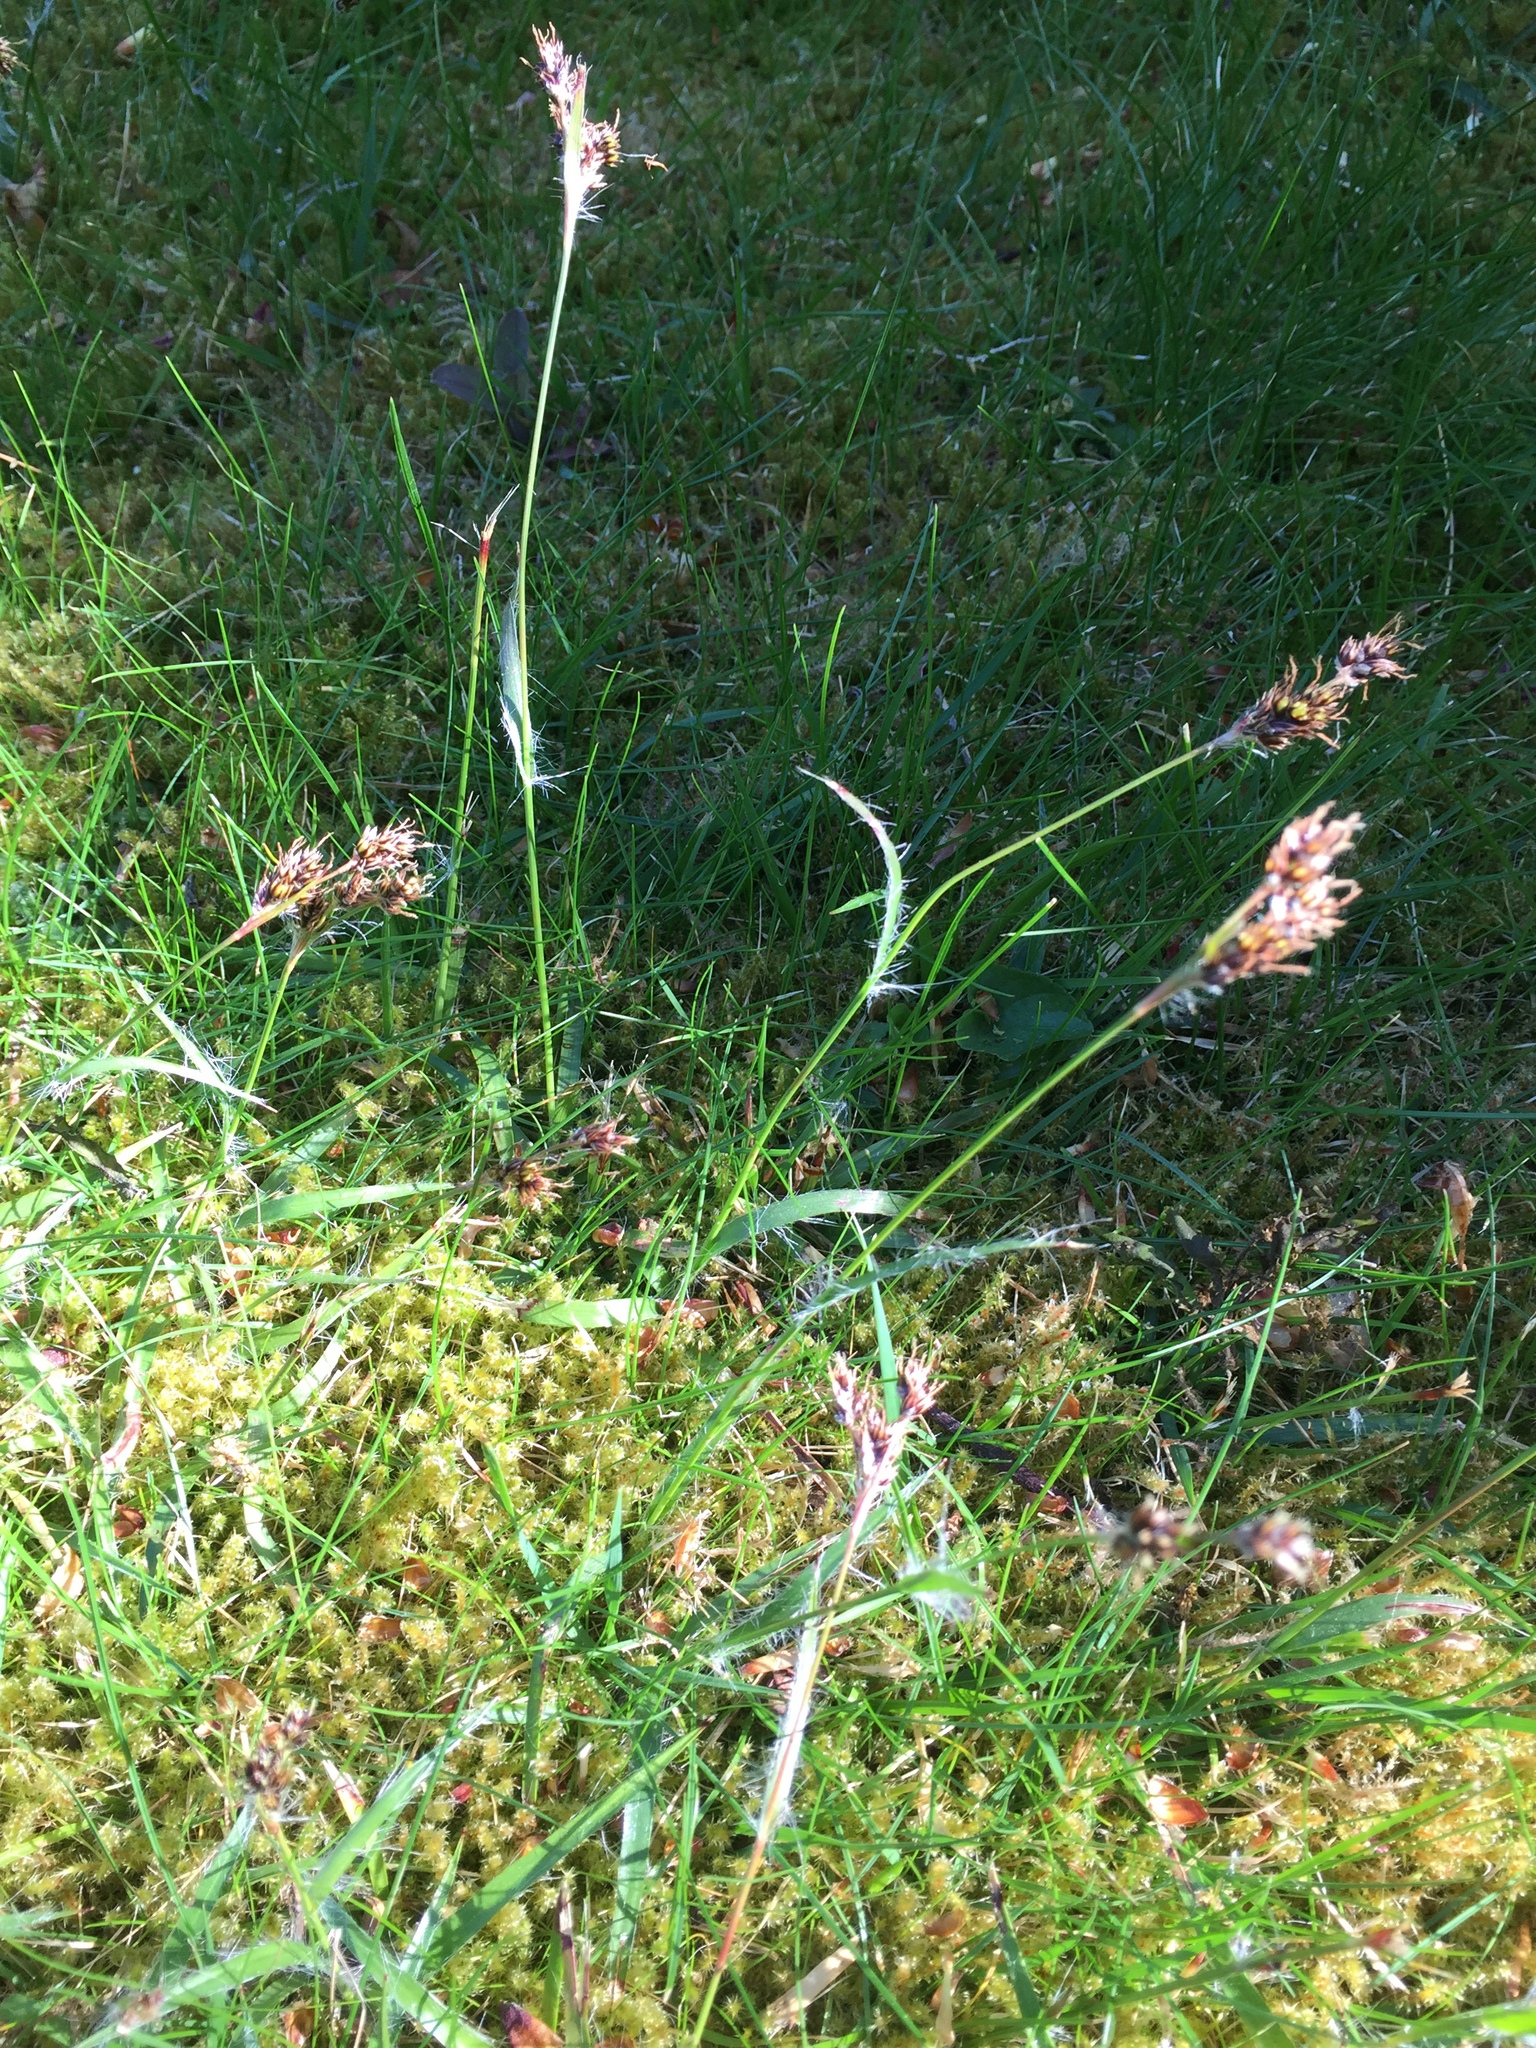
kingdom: Plantae
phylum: Tracheophyta
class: Liliopsida
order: Poales
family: Juncaceae
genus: Luzula
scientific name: Luzula campestris
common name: Field wood-rush
